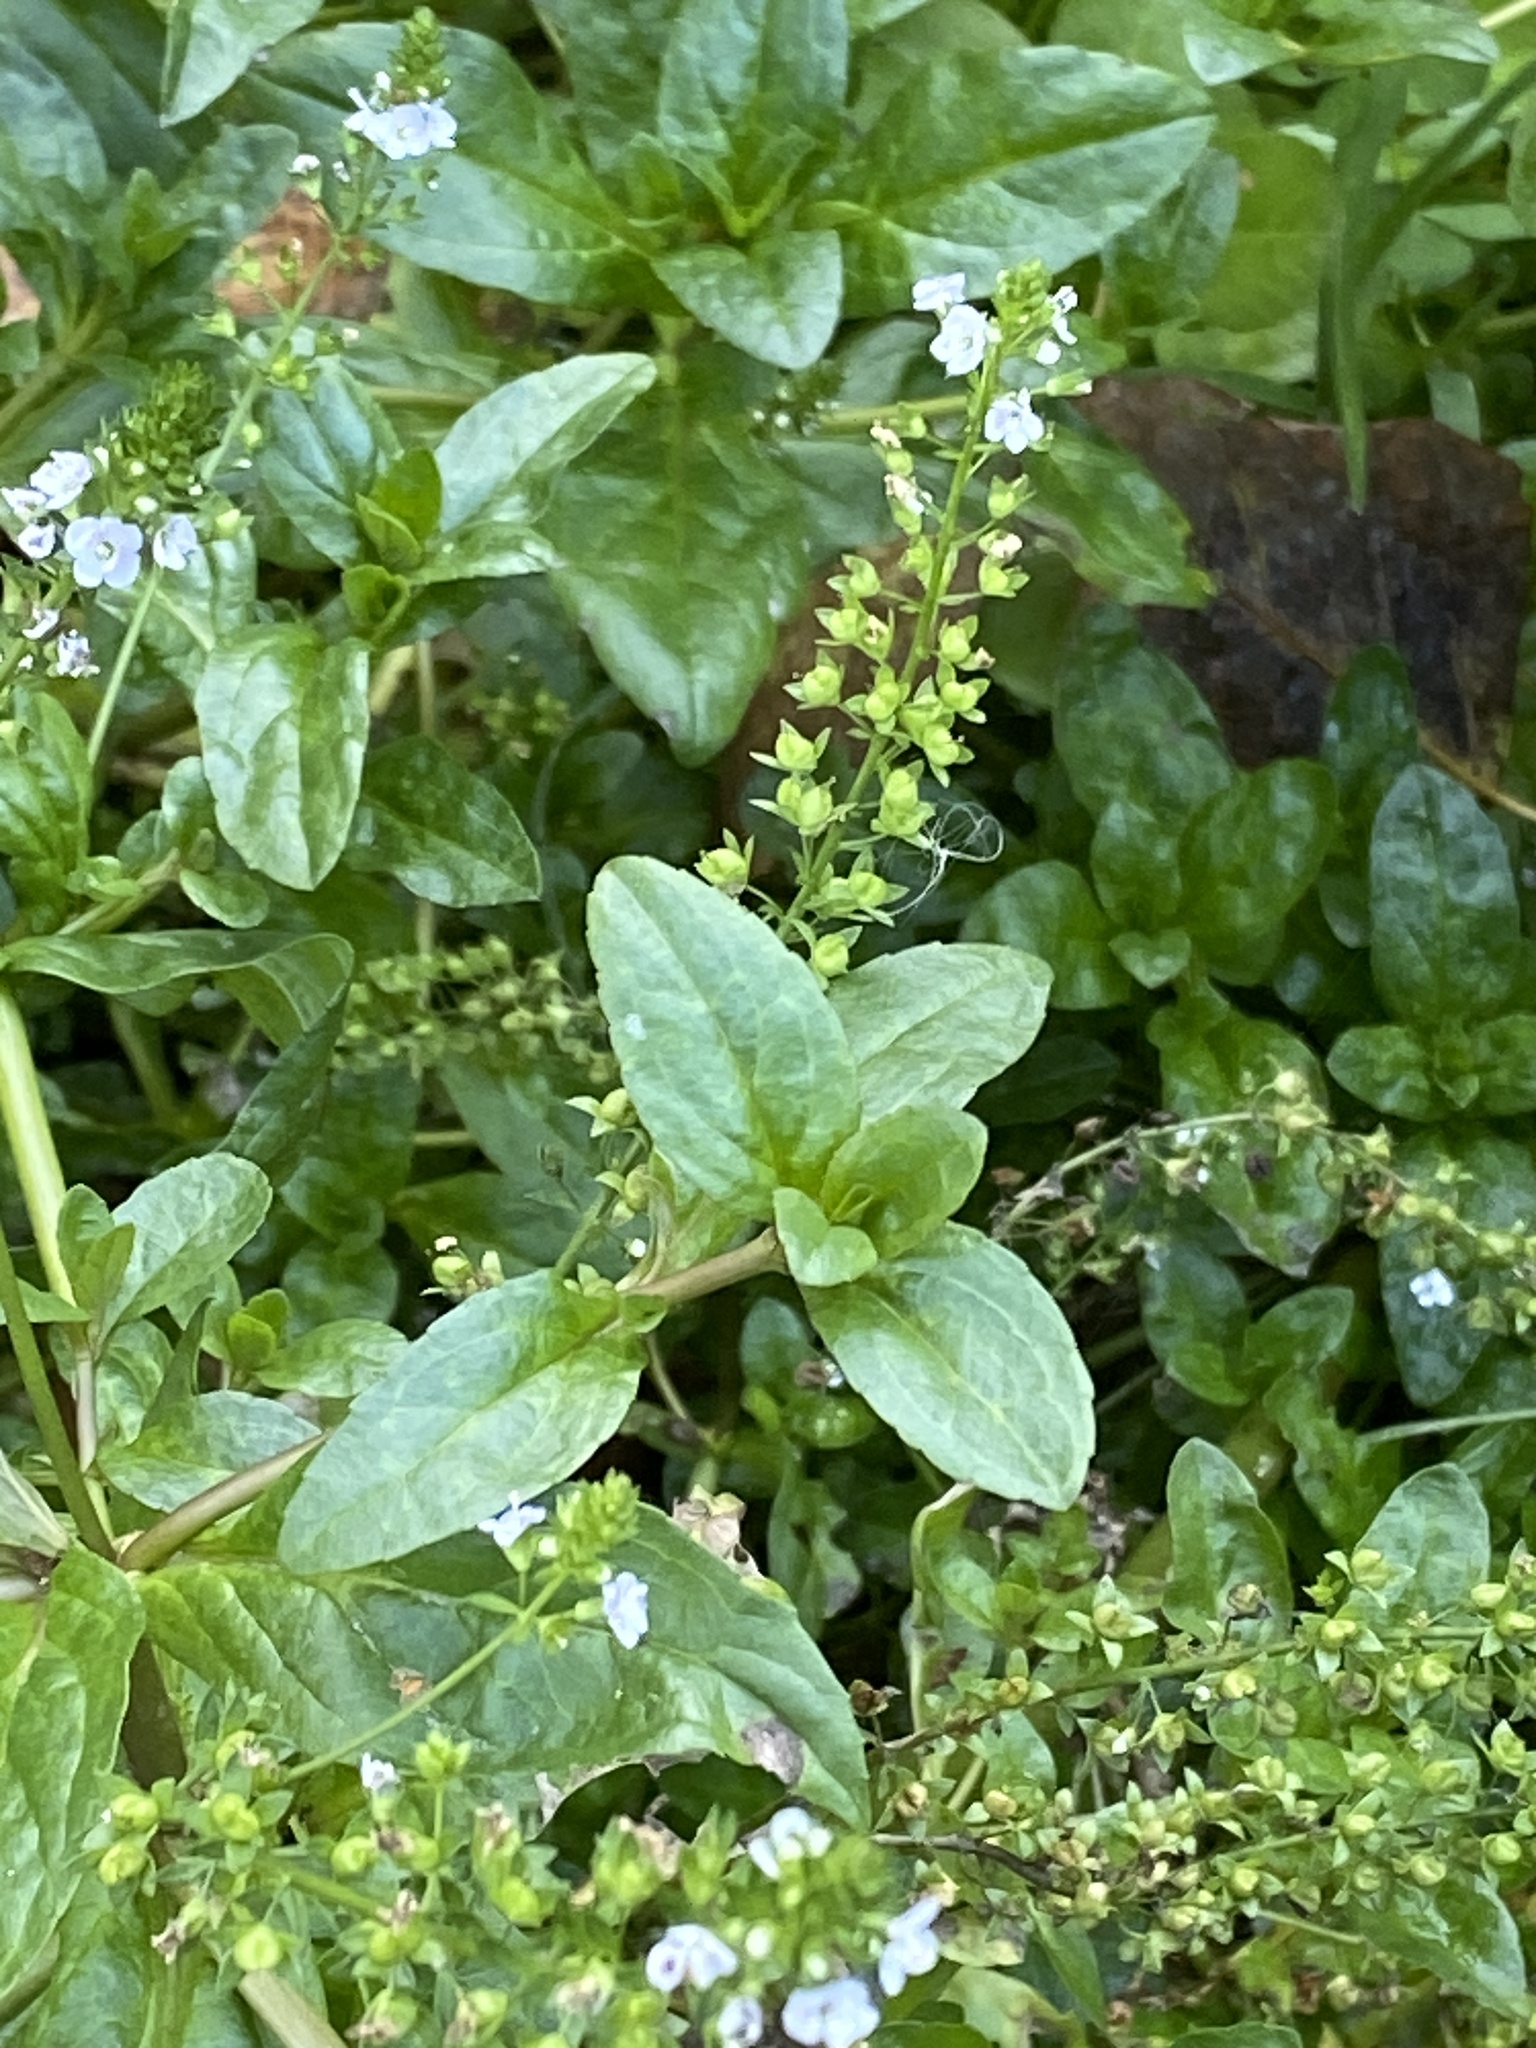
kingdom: Plantae
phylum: Tracheophyta
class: Magnoliopsida
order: Lamiales
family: Plantaginaceae
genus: Veronica
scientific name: Veronica anagallis-aquatica
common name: Water speedwell
